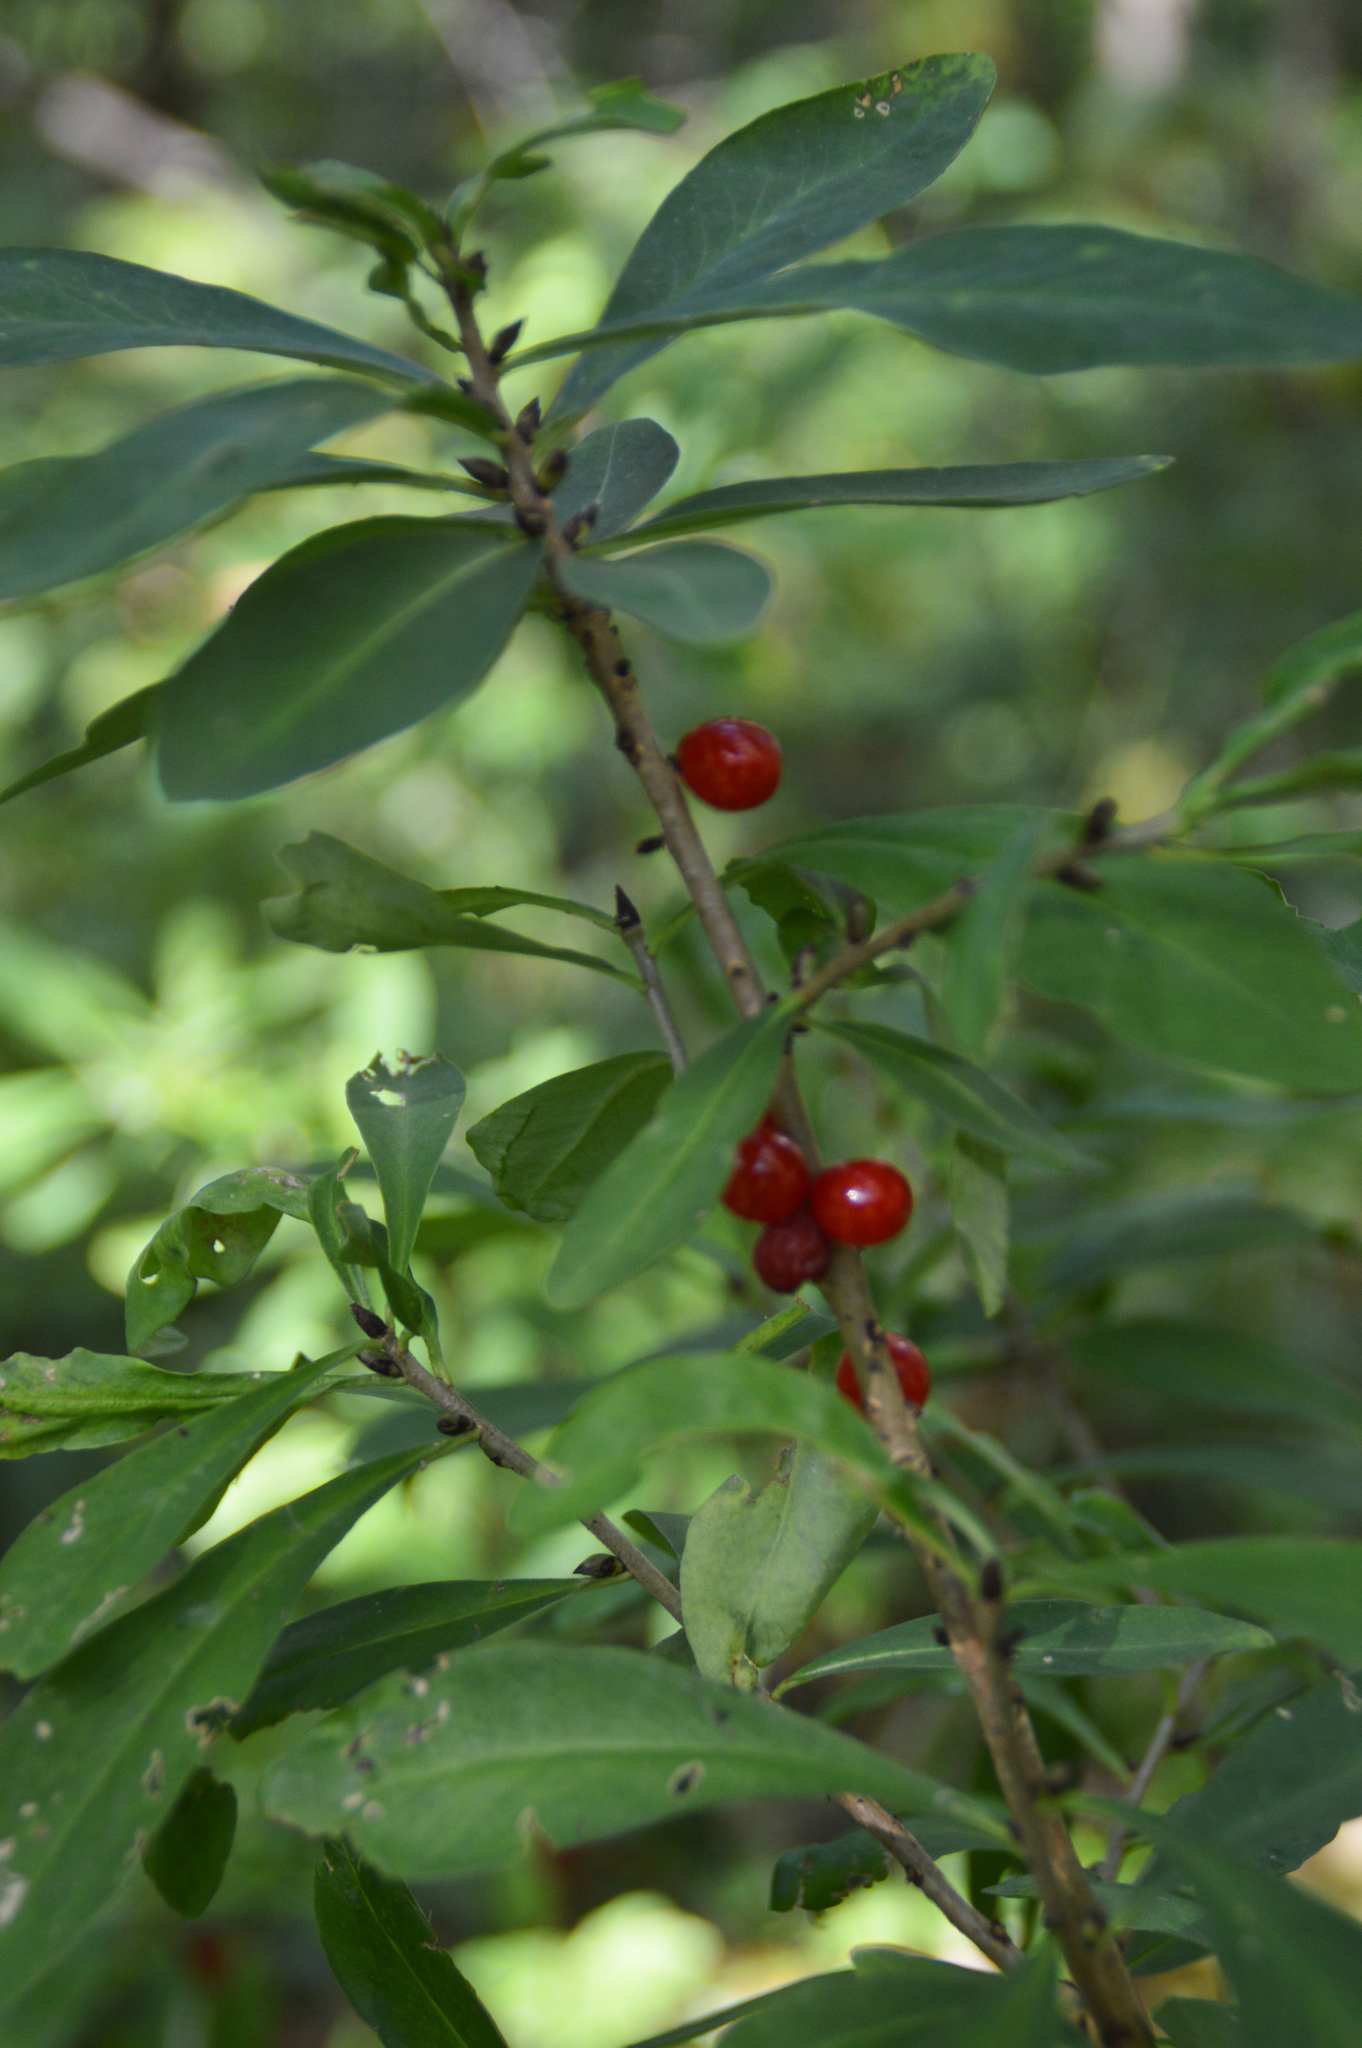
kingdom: Plantae
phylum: Tracheophyta
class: Magnoliopsida
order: Malvales
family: Thymelaeaceae
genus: Daphne
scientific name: Daphne mezereum
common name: Mezereon
